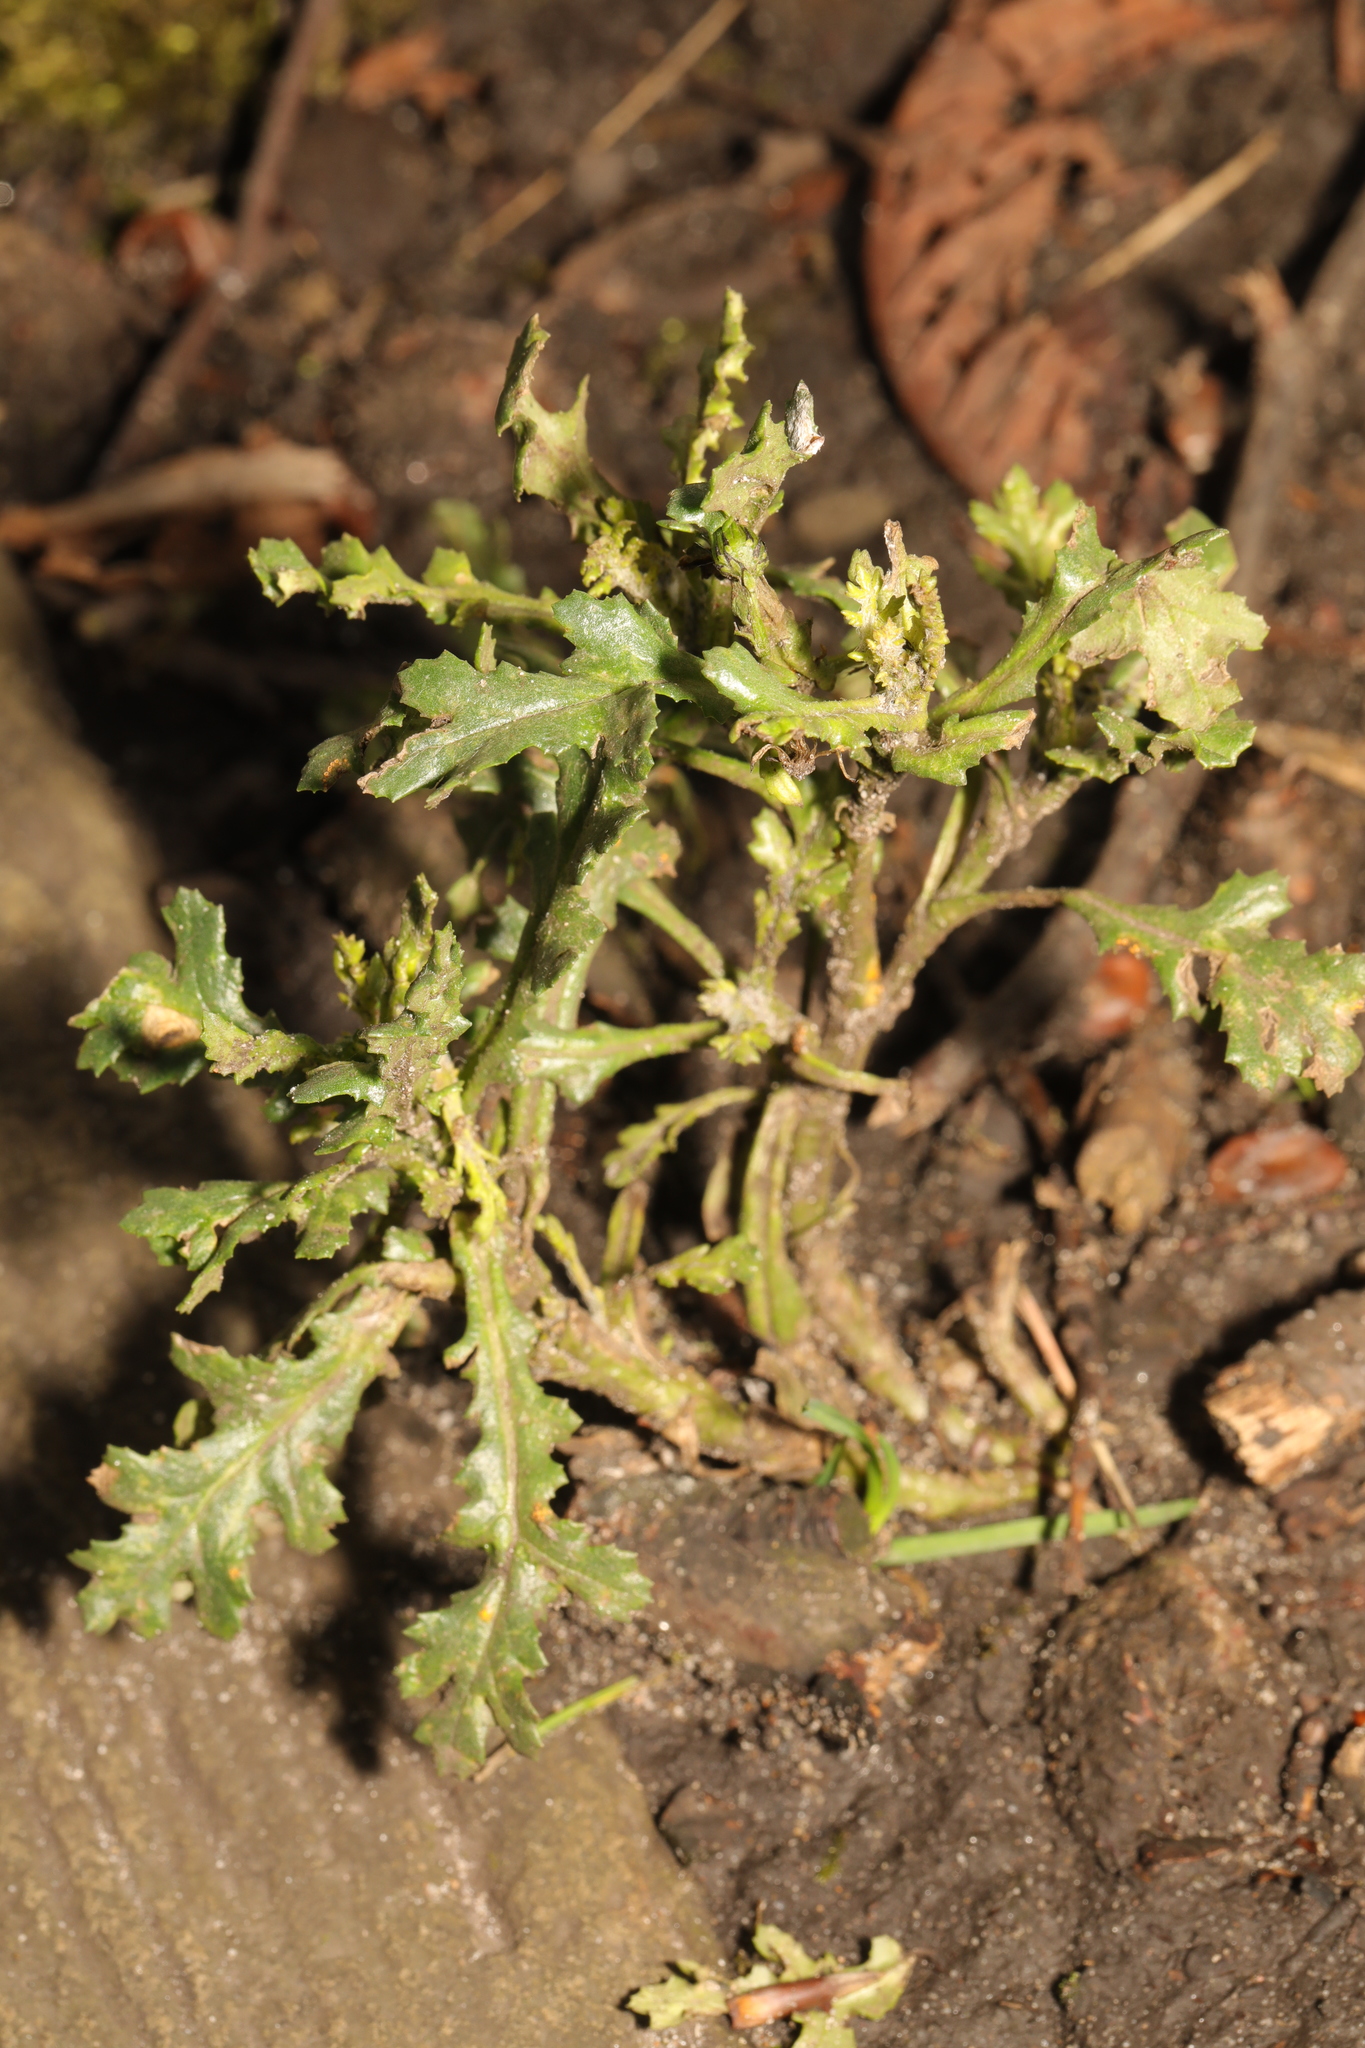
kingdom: Plantae
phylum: Tracheophyta
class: Magnoliopsida
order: Asterales
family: Asteraceae
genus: Senecio
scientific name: Senecio vulgaris
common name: Old-man-in-the-spring
